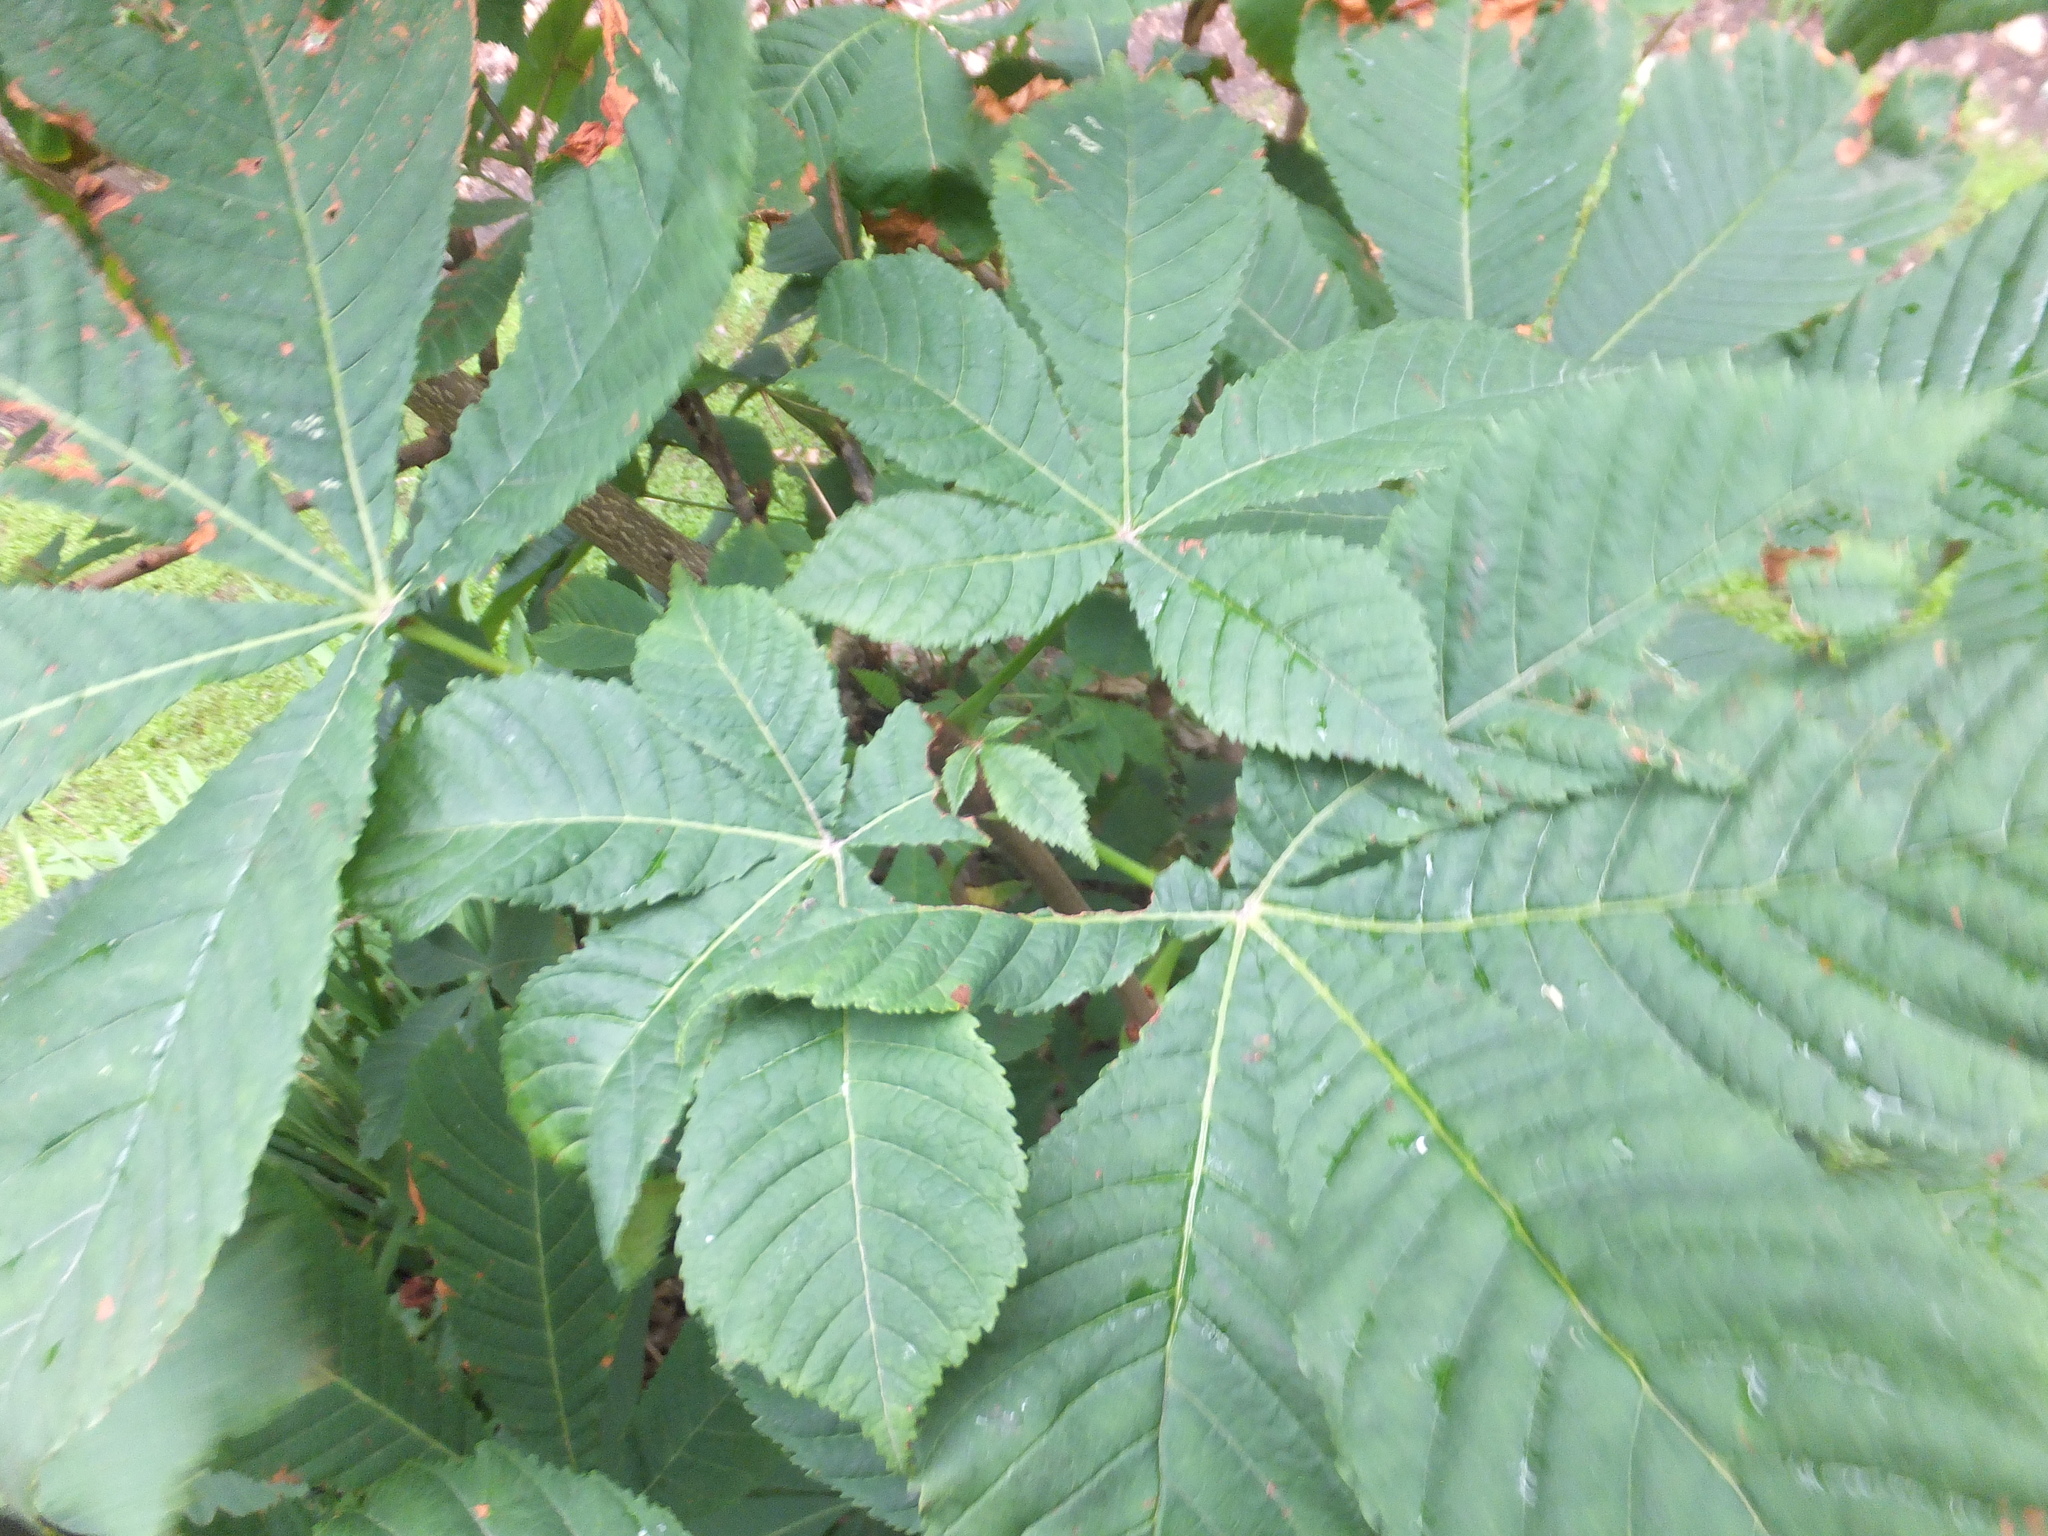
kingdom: Plantae
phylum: Tracheophyta
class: Magnoliopsida
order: Sapindales
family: Sapindaceae
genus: Aesculus
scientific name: Aesculus hippocastanum
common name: Horse-chestnut
